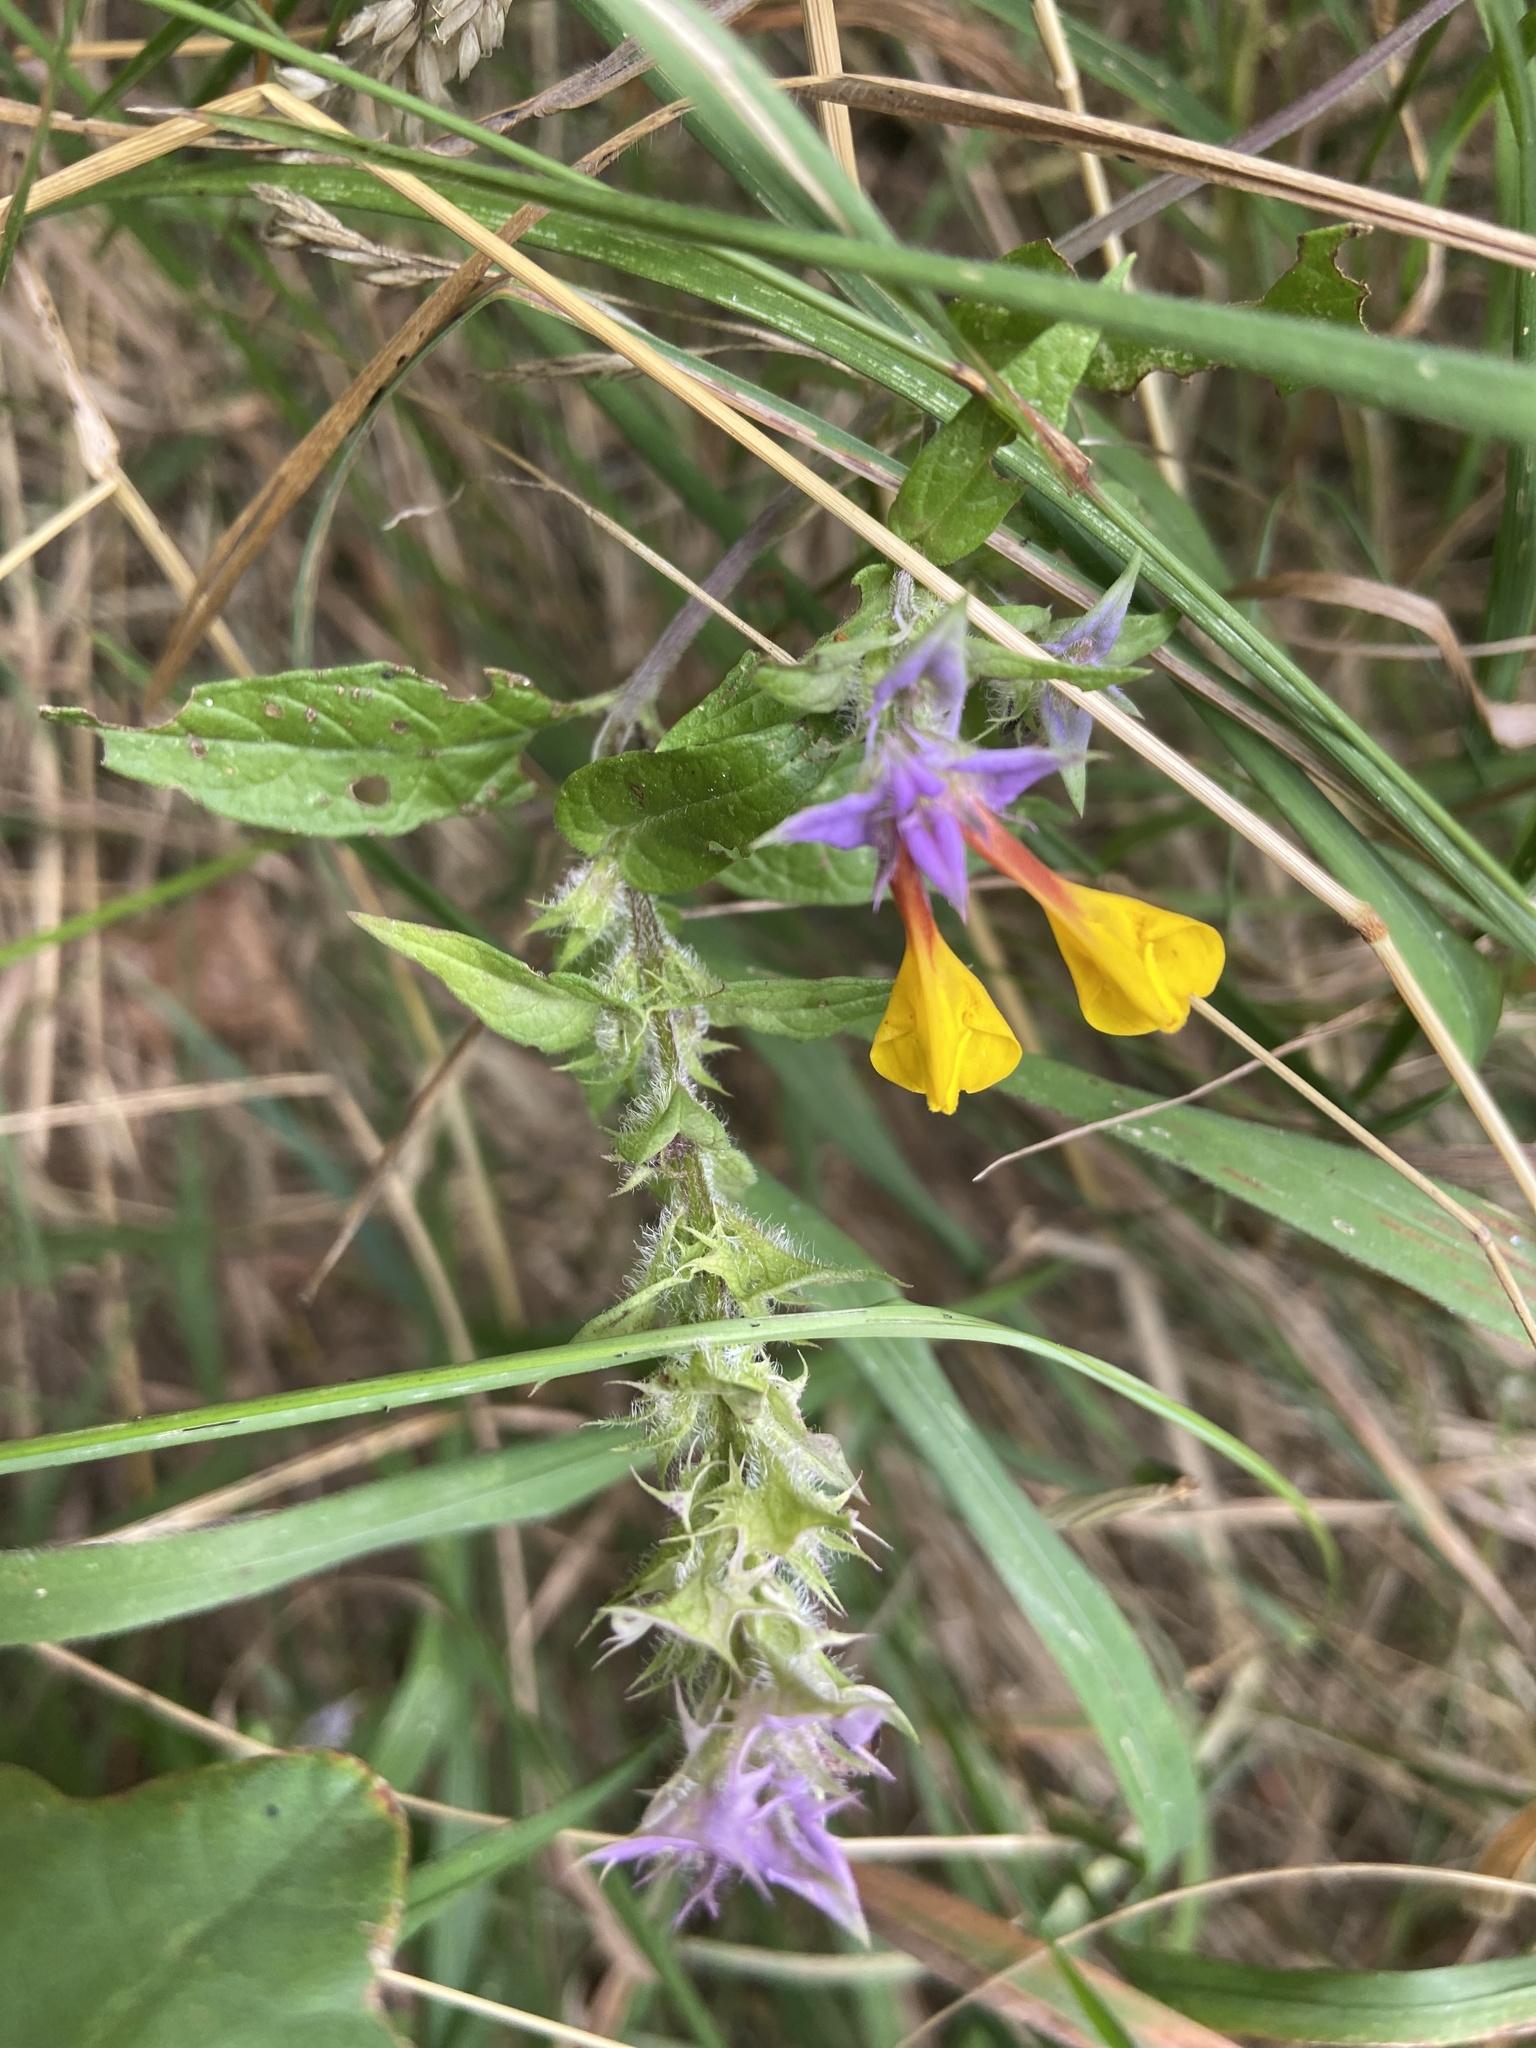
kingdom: Plantae
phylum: Tracheophyta
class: Magnoliopsida
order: Lamiales
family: Orobanchaceae
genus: Melampyrum
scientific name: Melampyrum nemorosum
